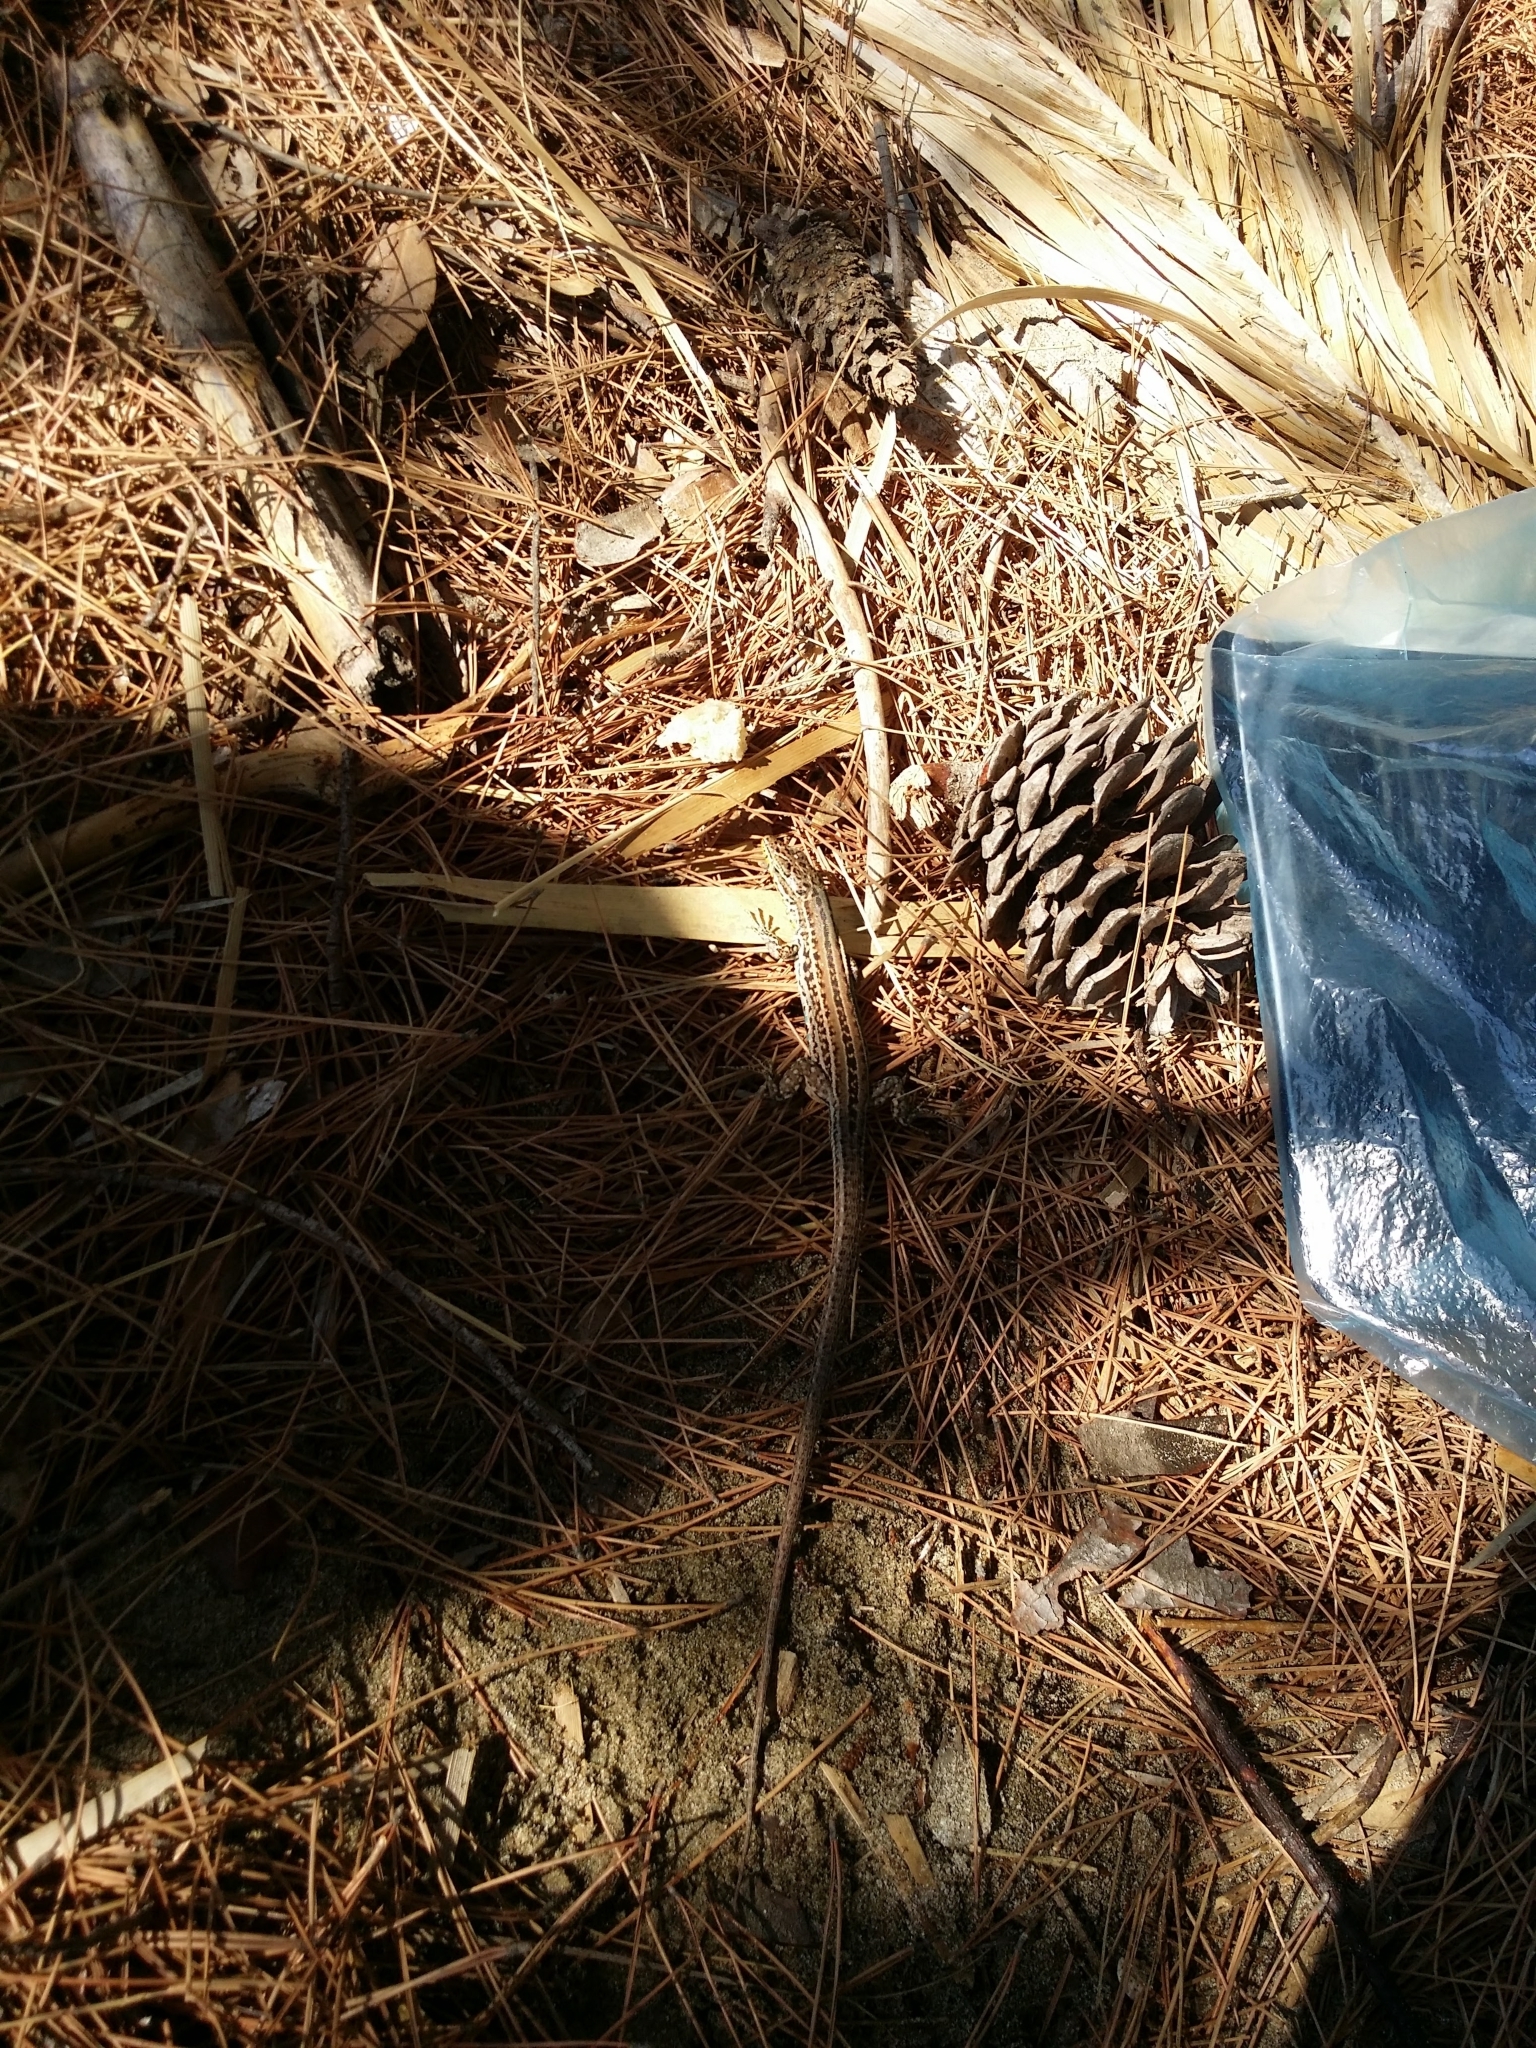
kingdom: Animalia
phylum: Chordata
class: Squamata
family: Lacertidae
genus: Podarcis
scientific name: Podarcis melisellensis
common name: Dalmatian wall lizard
